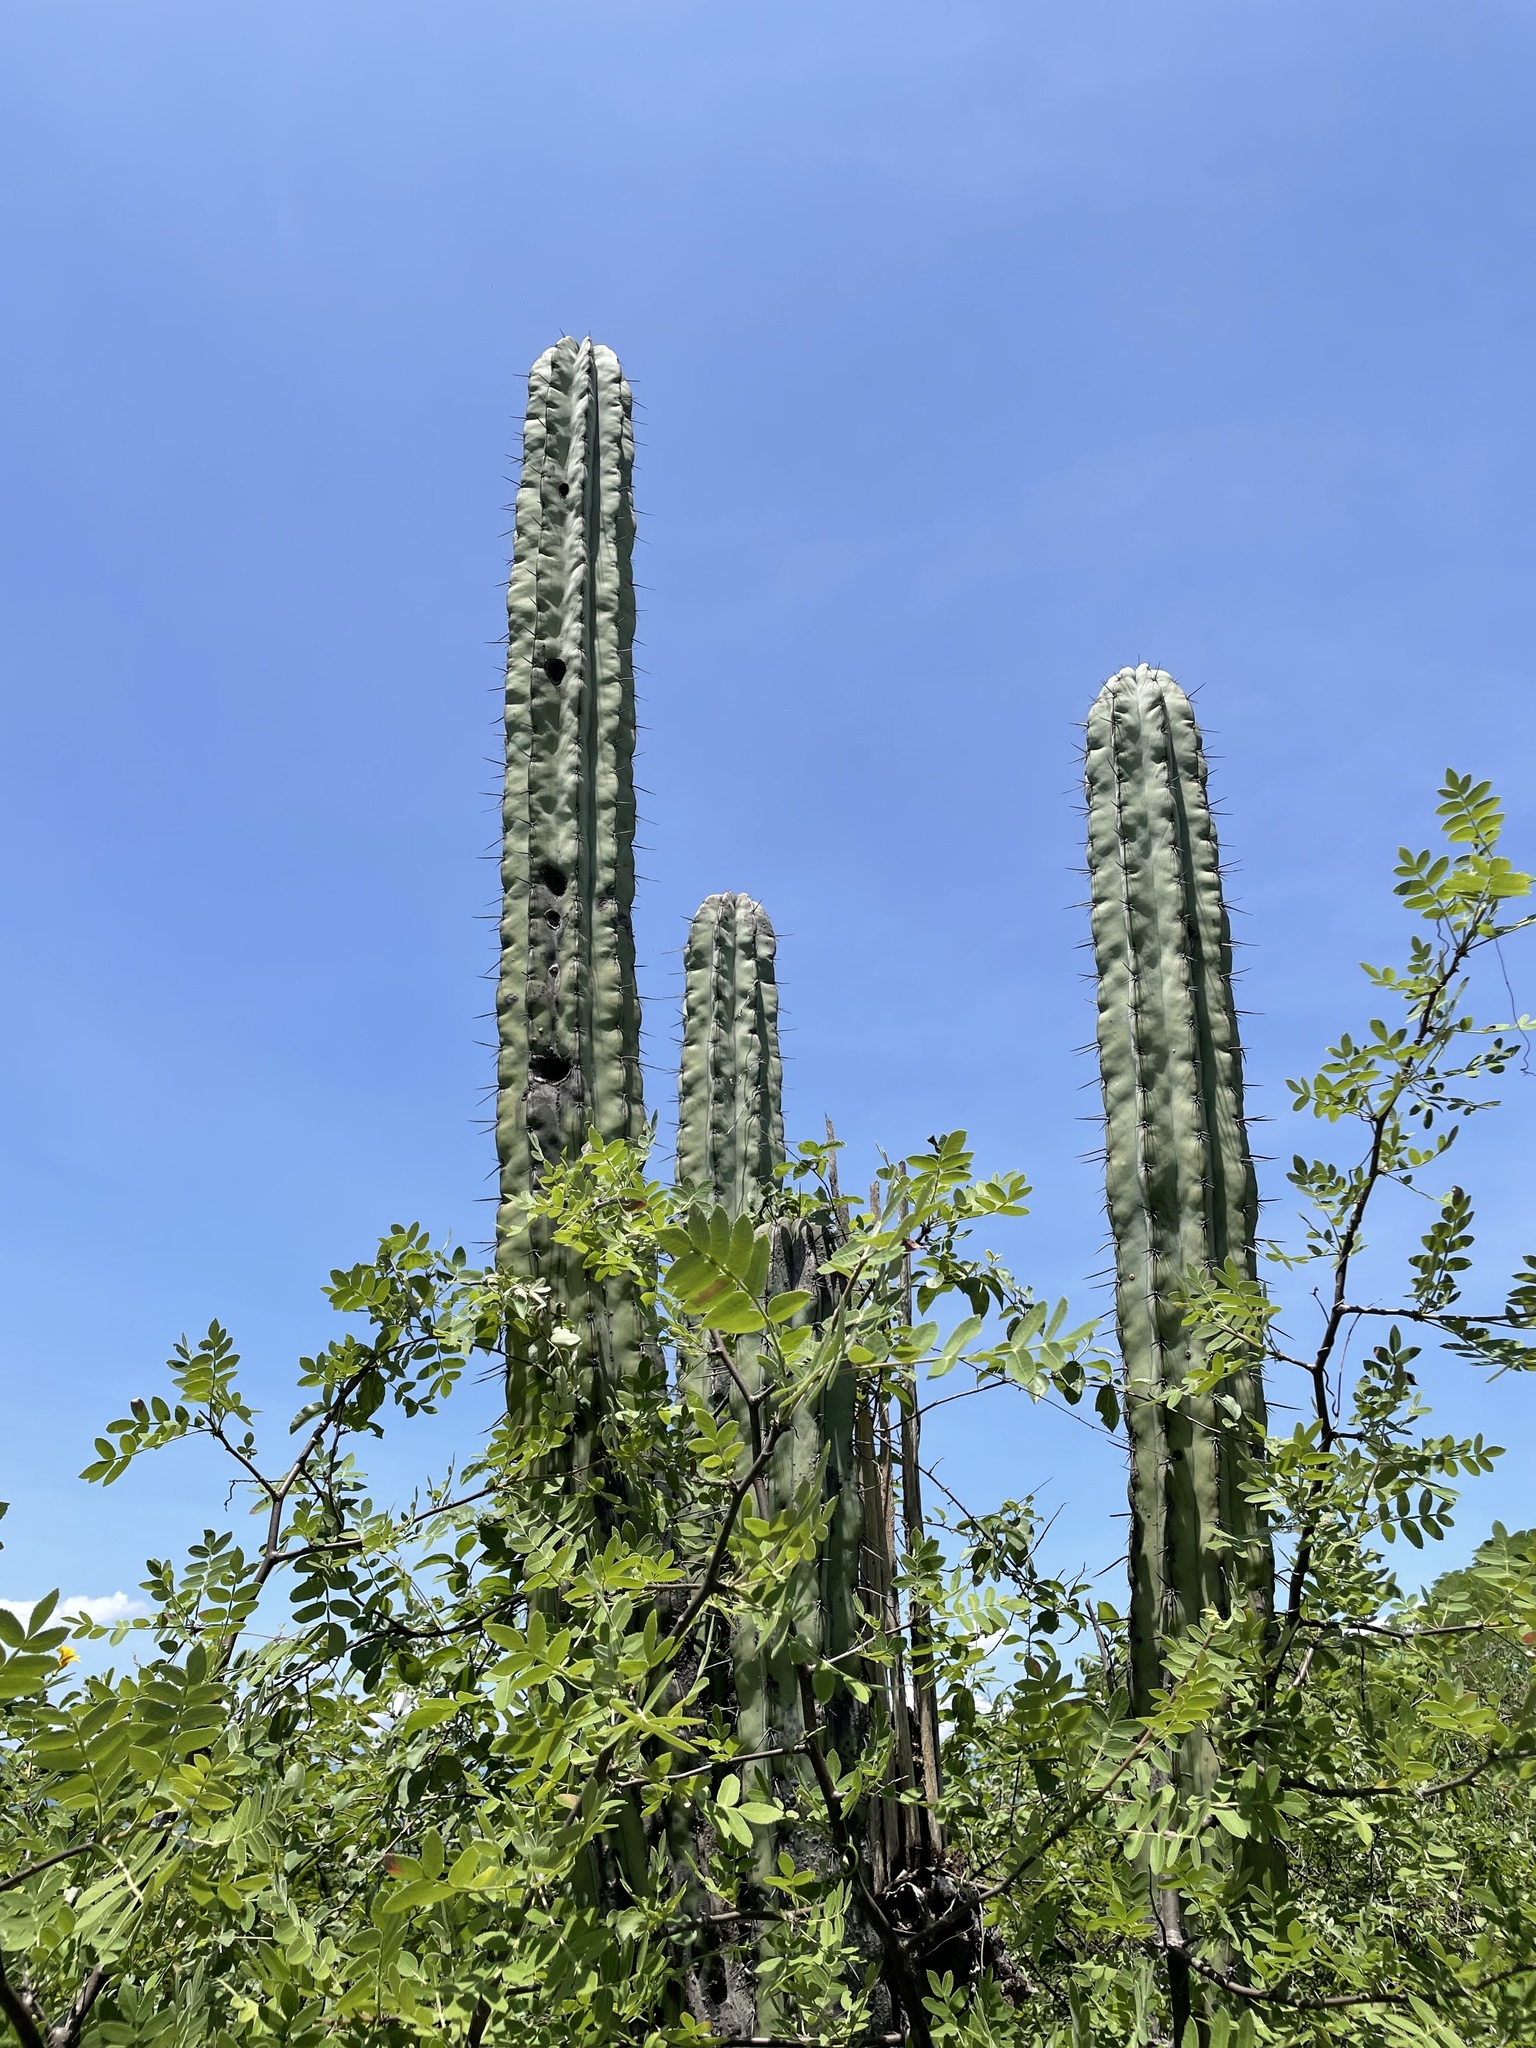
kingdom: Plantae
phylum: Tracheophyta
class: Magnoliopsida
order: Caryophyllales
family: Cactaceae
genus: Pachycereus
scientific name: Pachycereus weberi
